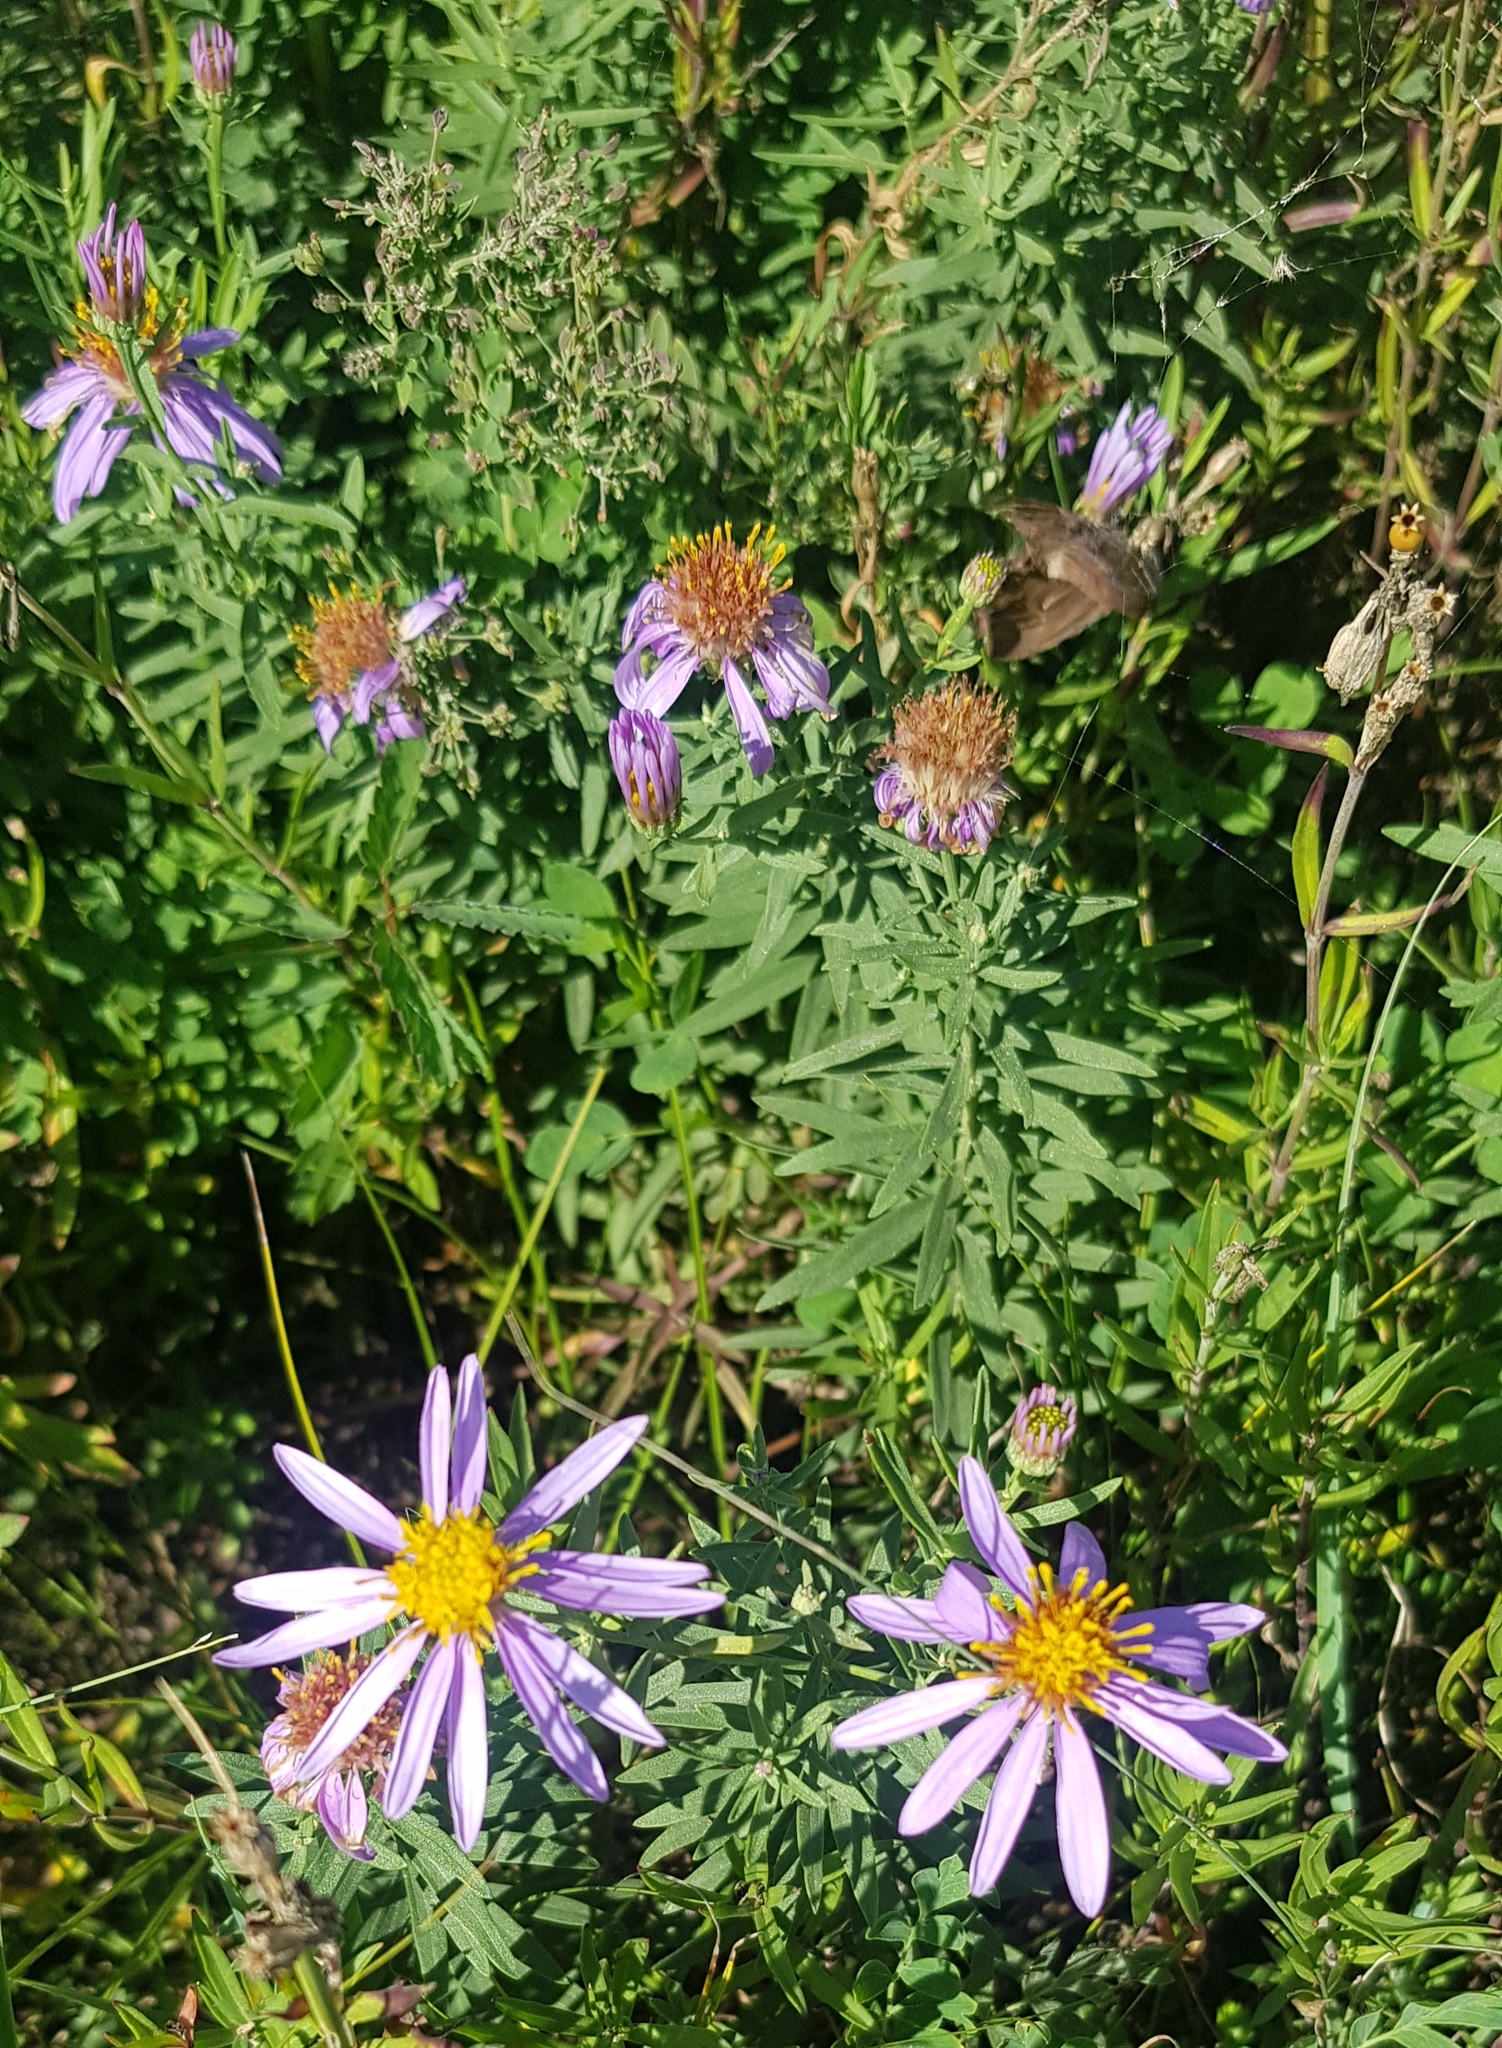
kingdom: Plantae
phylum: Tracheophyta
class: Magnoliopsida
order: Asterales
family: Asteraceae
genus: Galatella
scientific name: Galatella dahurica
